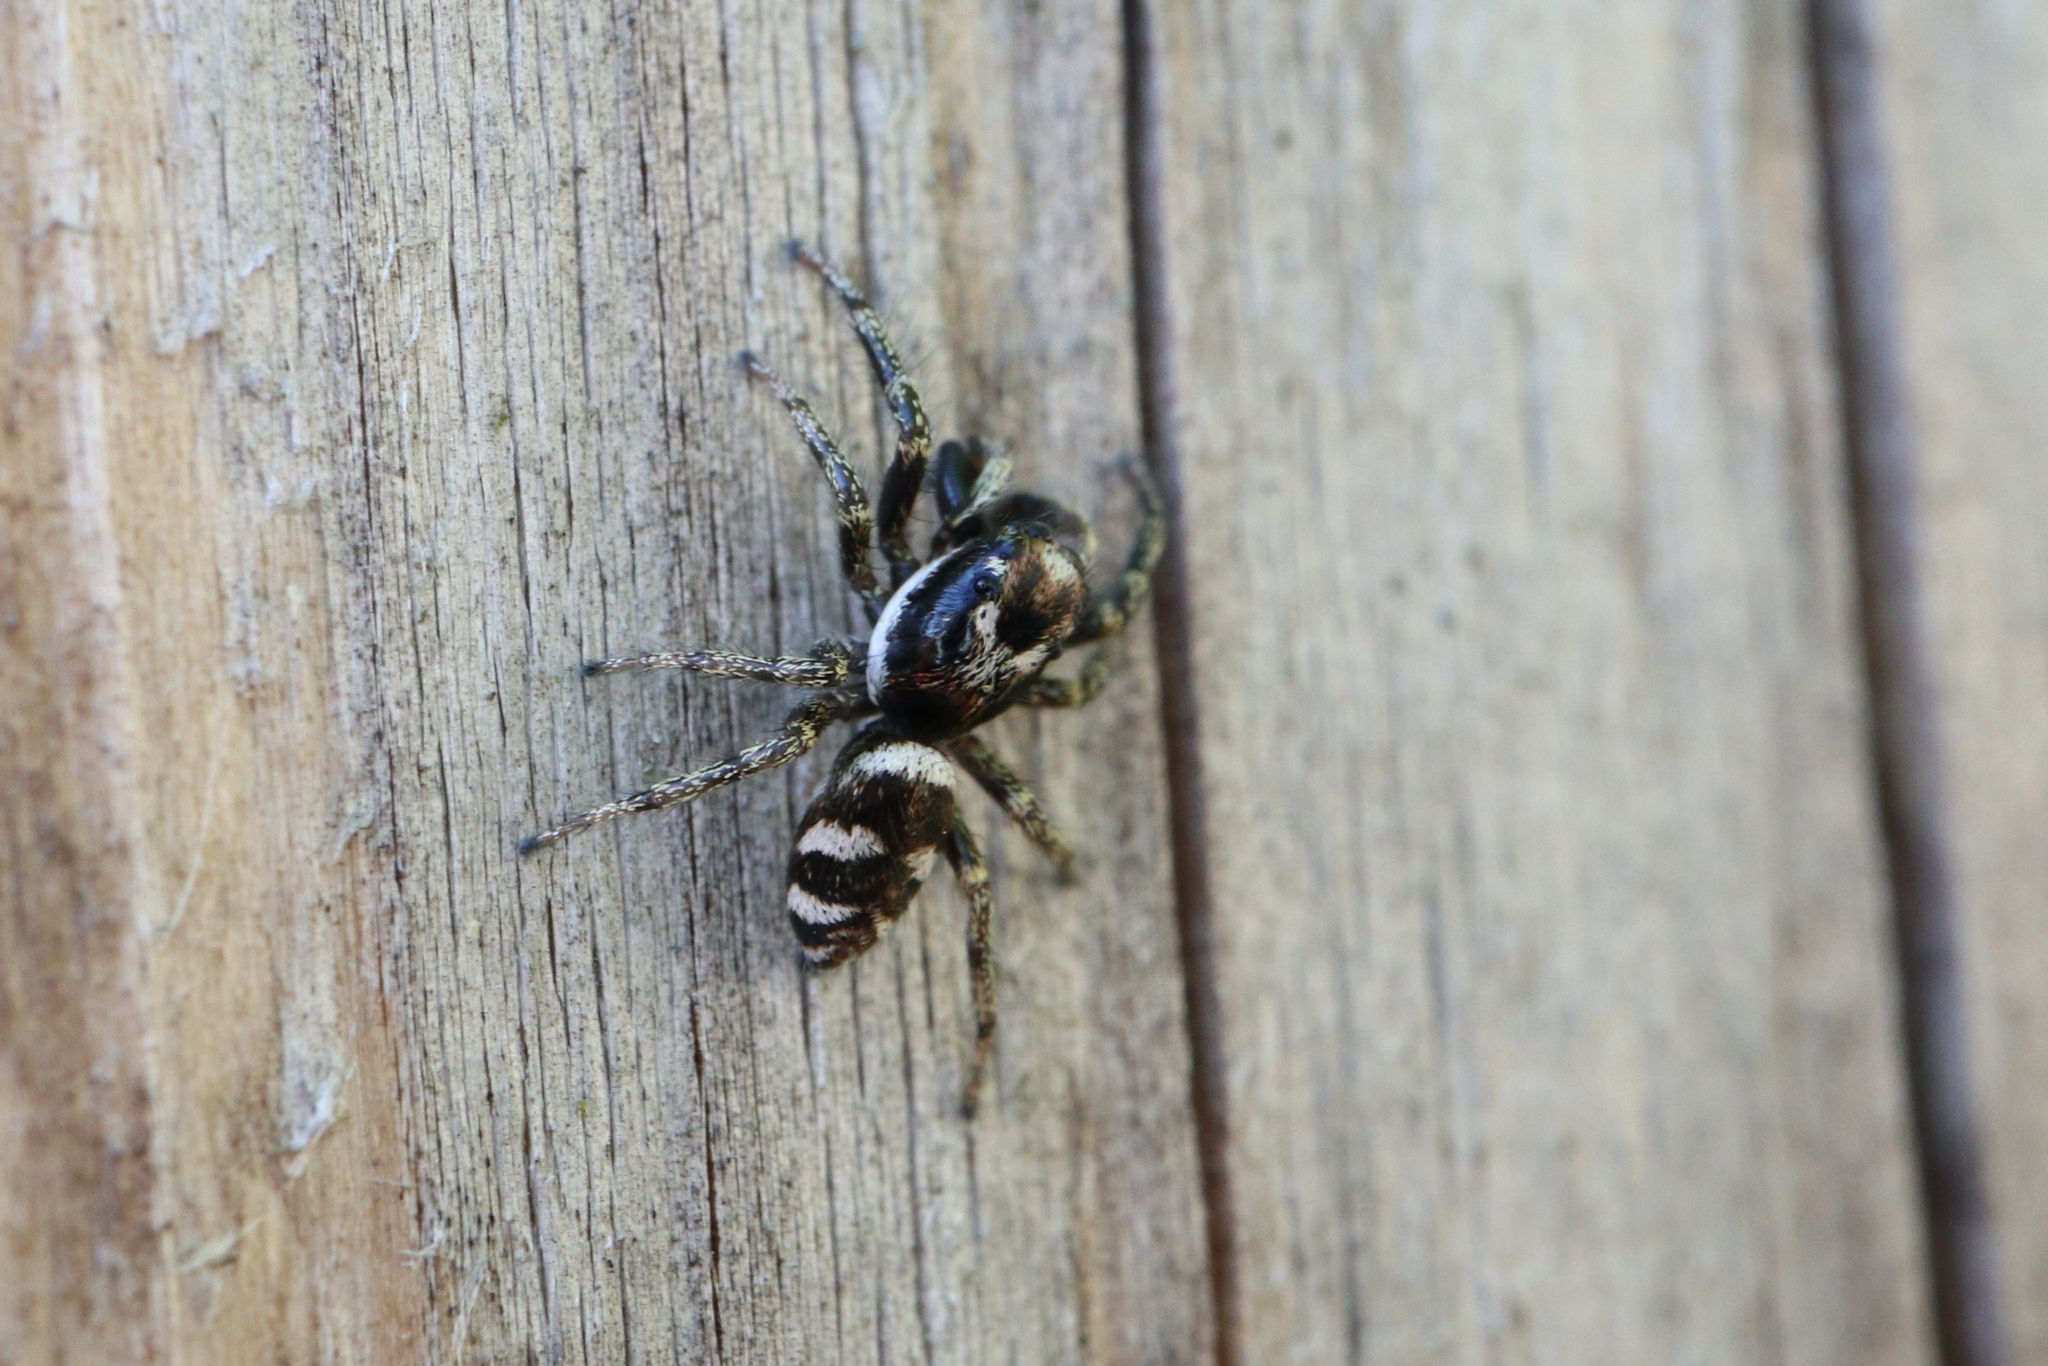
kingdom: Animalia
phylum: Arthropoda
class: Arachnida
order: Araneae
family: Salticidae
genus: Salticus
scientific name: Salticus scenicus
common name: Zebra jumper
